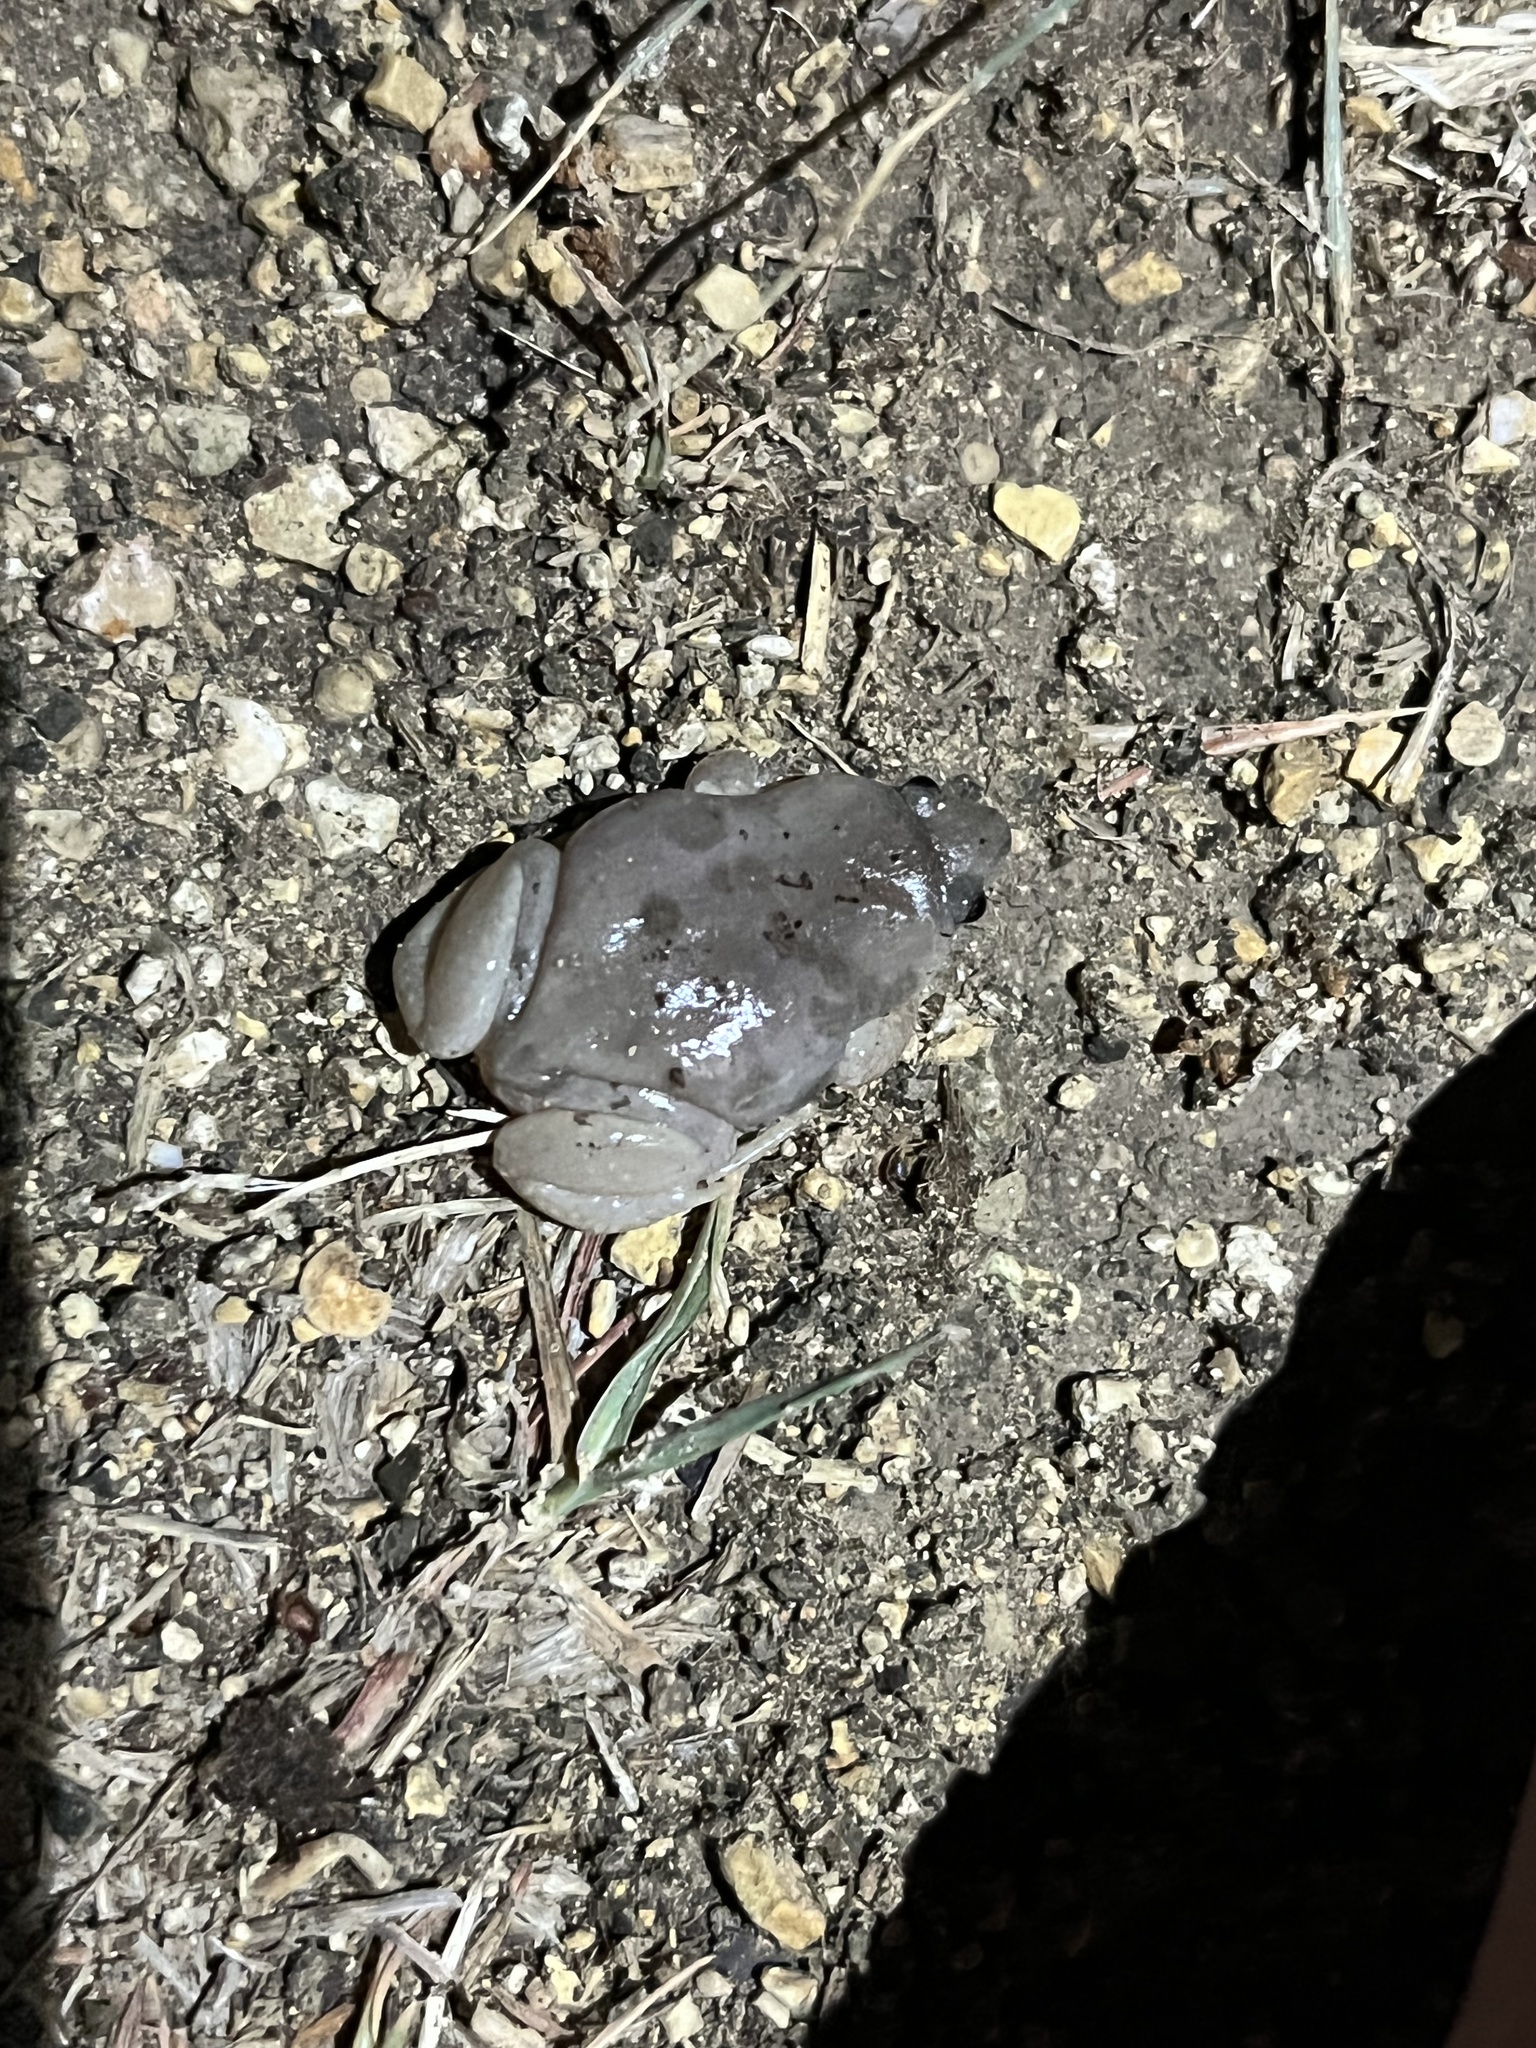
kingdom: Animalia
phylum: Chordata
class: Amphibia
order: Anura
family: Microhylidae
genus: Gastrophryne
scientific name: Gastrophryne olivacea
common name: Great plains narrow-mouthed toad
